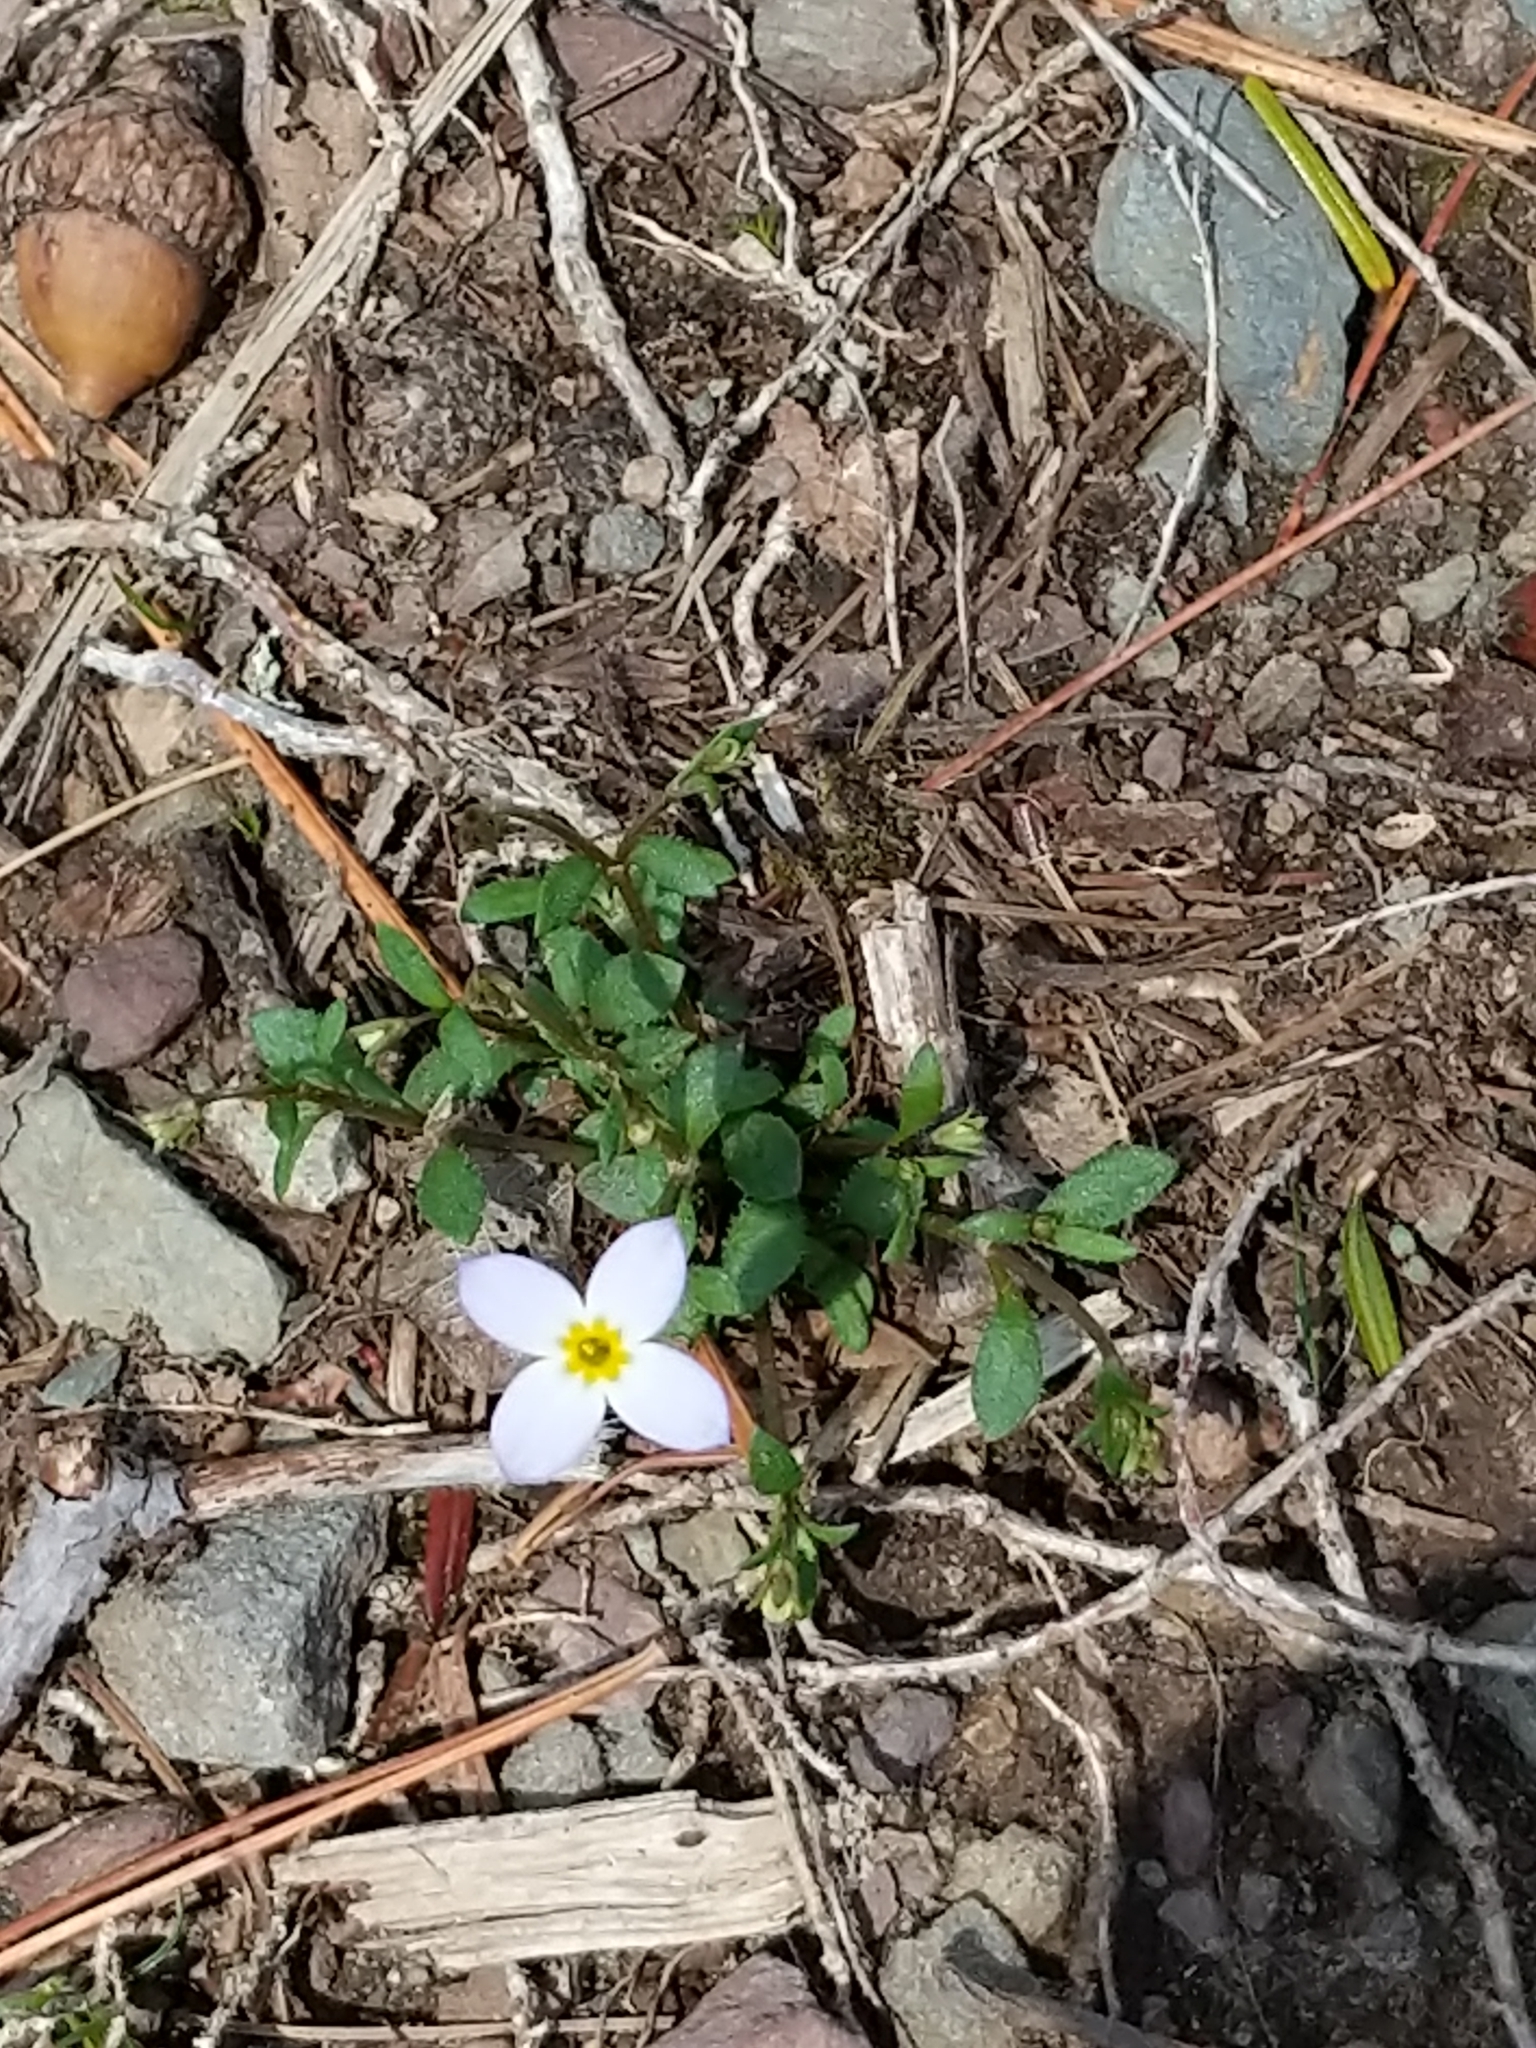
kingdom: Plantae
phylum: Tracheophyta
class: Magnoliopsida
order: Gentianales
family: Rubiaceae
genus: Houstonia
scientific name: Houstonia caerulea
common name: Bluets
